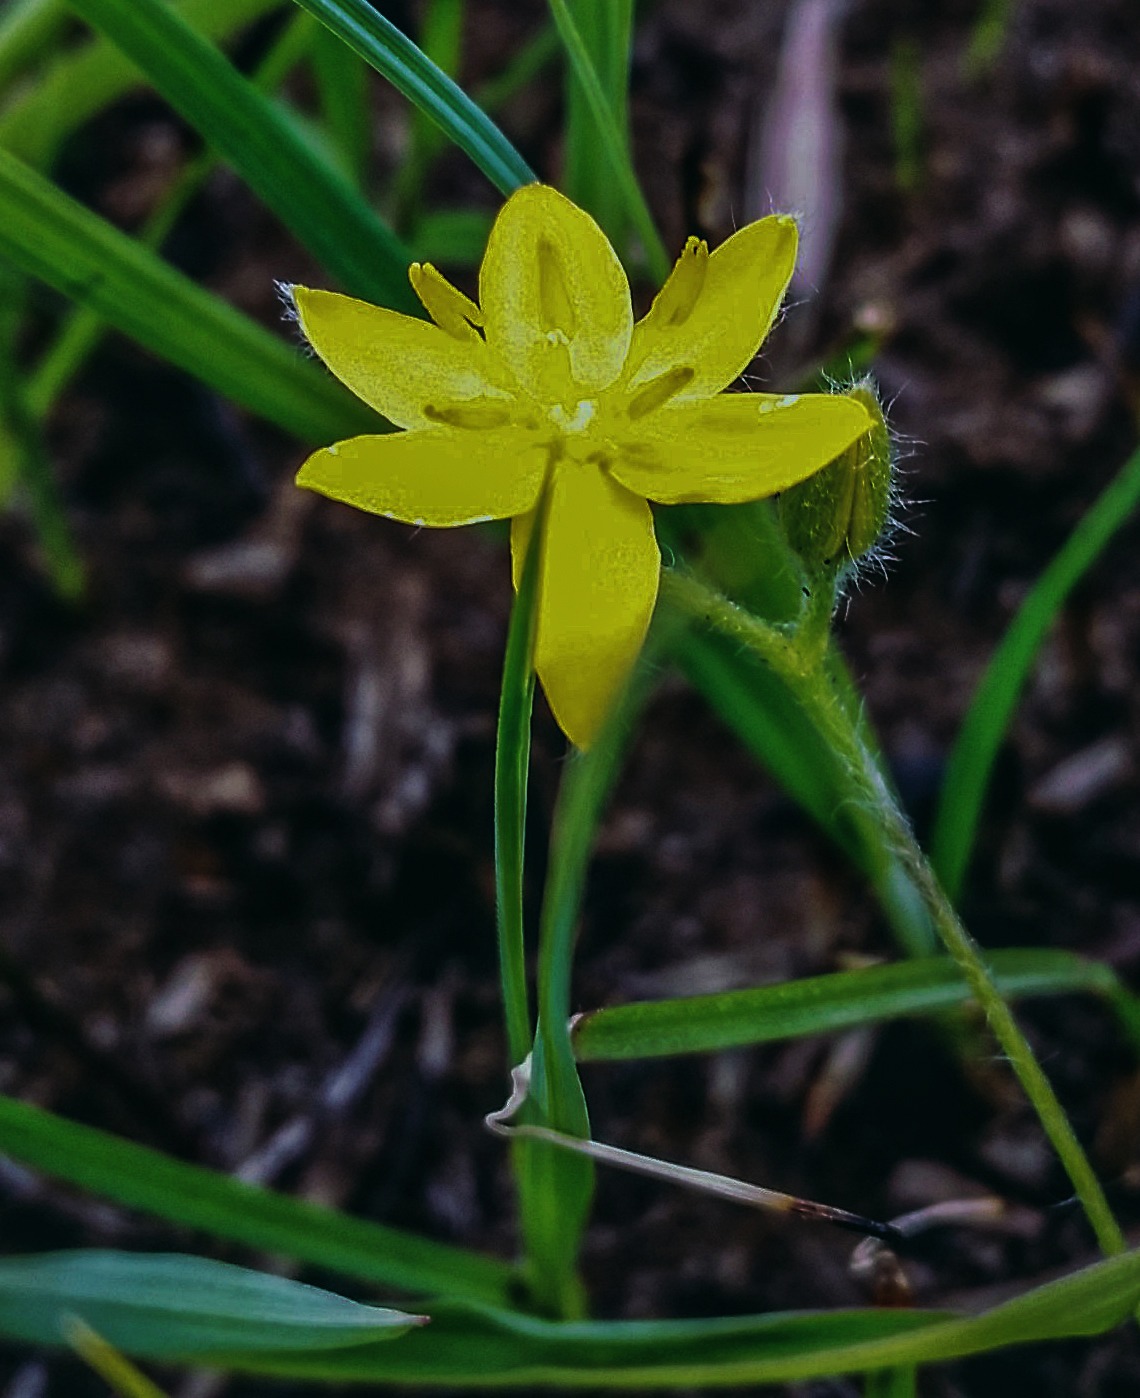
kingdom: Plantae
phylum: Tracheophyta
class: Liliopsida
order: Asparagales
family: Hypoxidaceae
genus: Hypoxis
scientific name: Hypoxis hirsuta
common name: Common goldstar
